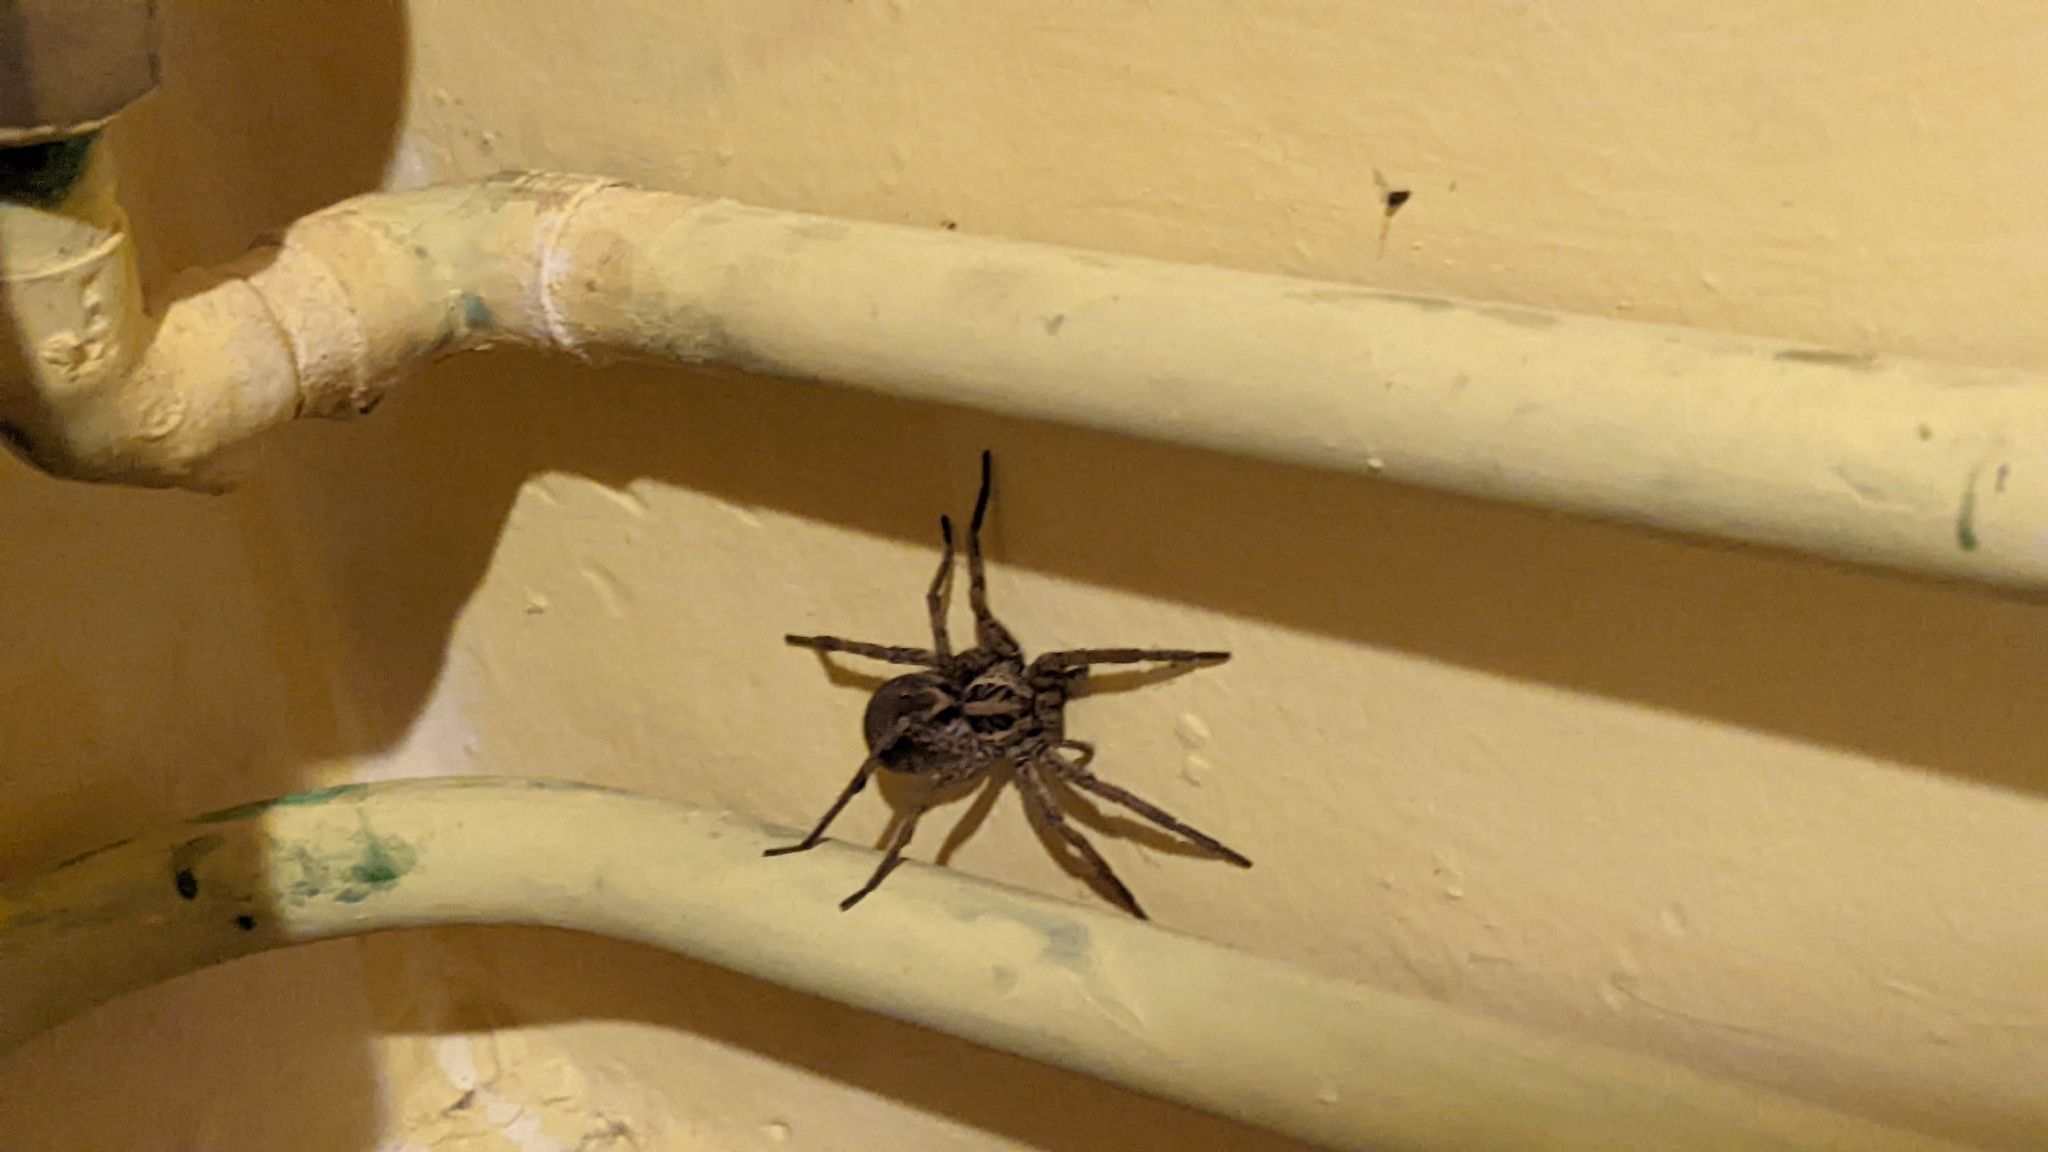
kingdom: Animalia
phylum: Arthropoda
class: Arachnida
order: Araneae
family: Lycosidae
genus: Hogna
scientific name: Hogna radiata
